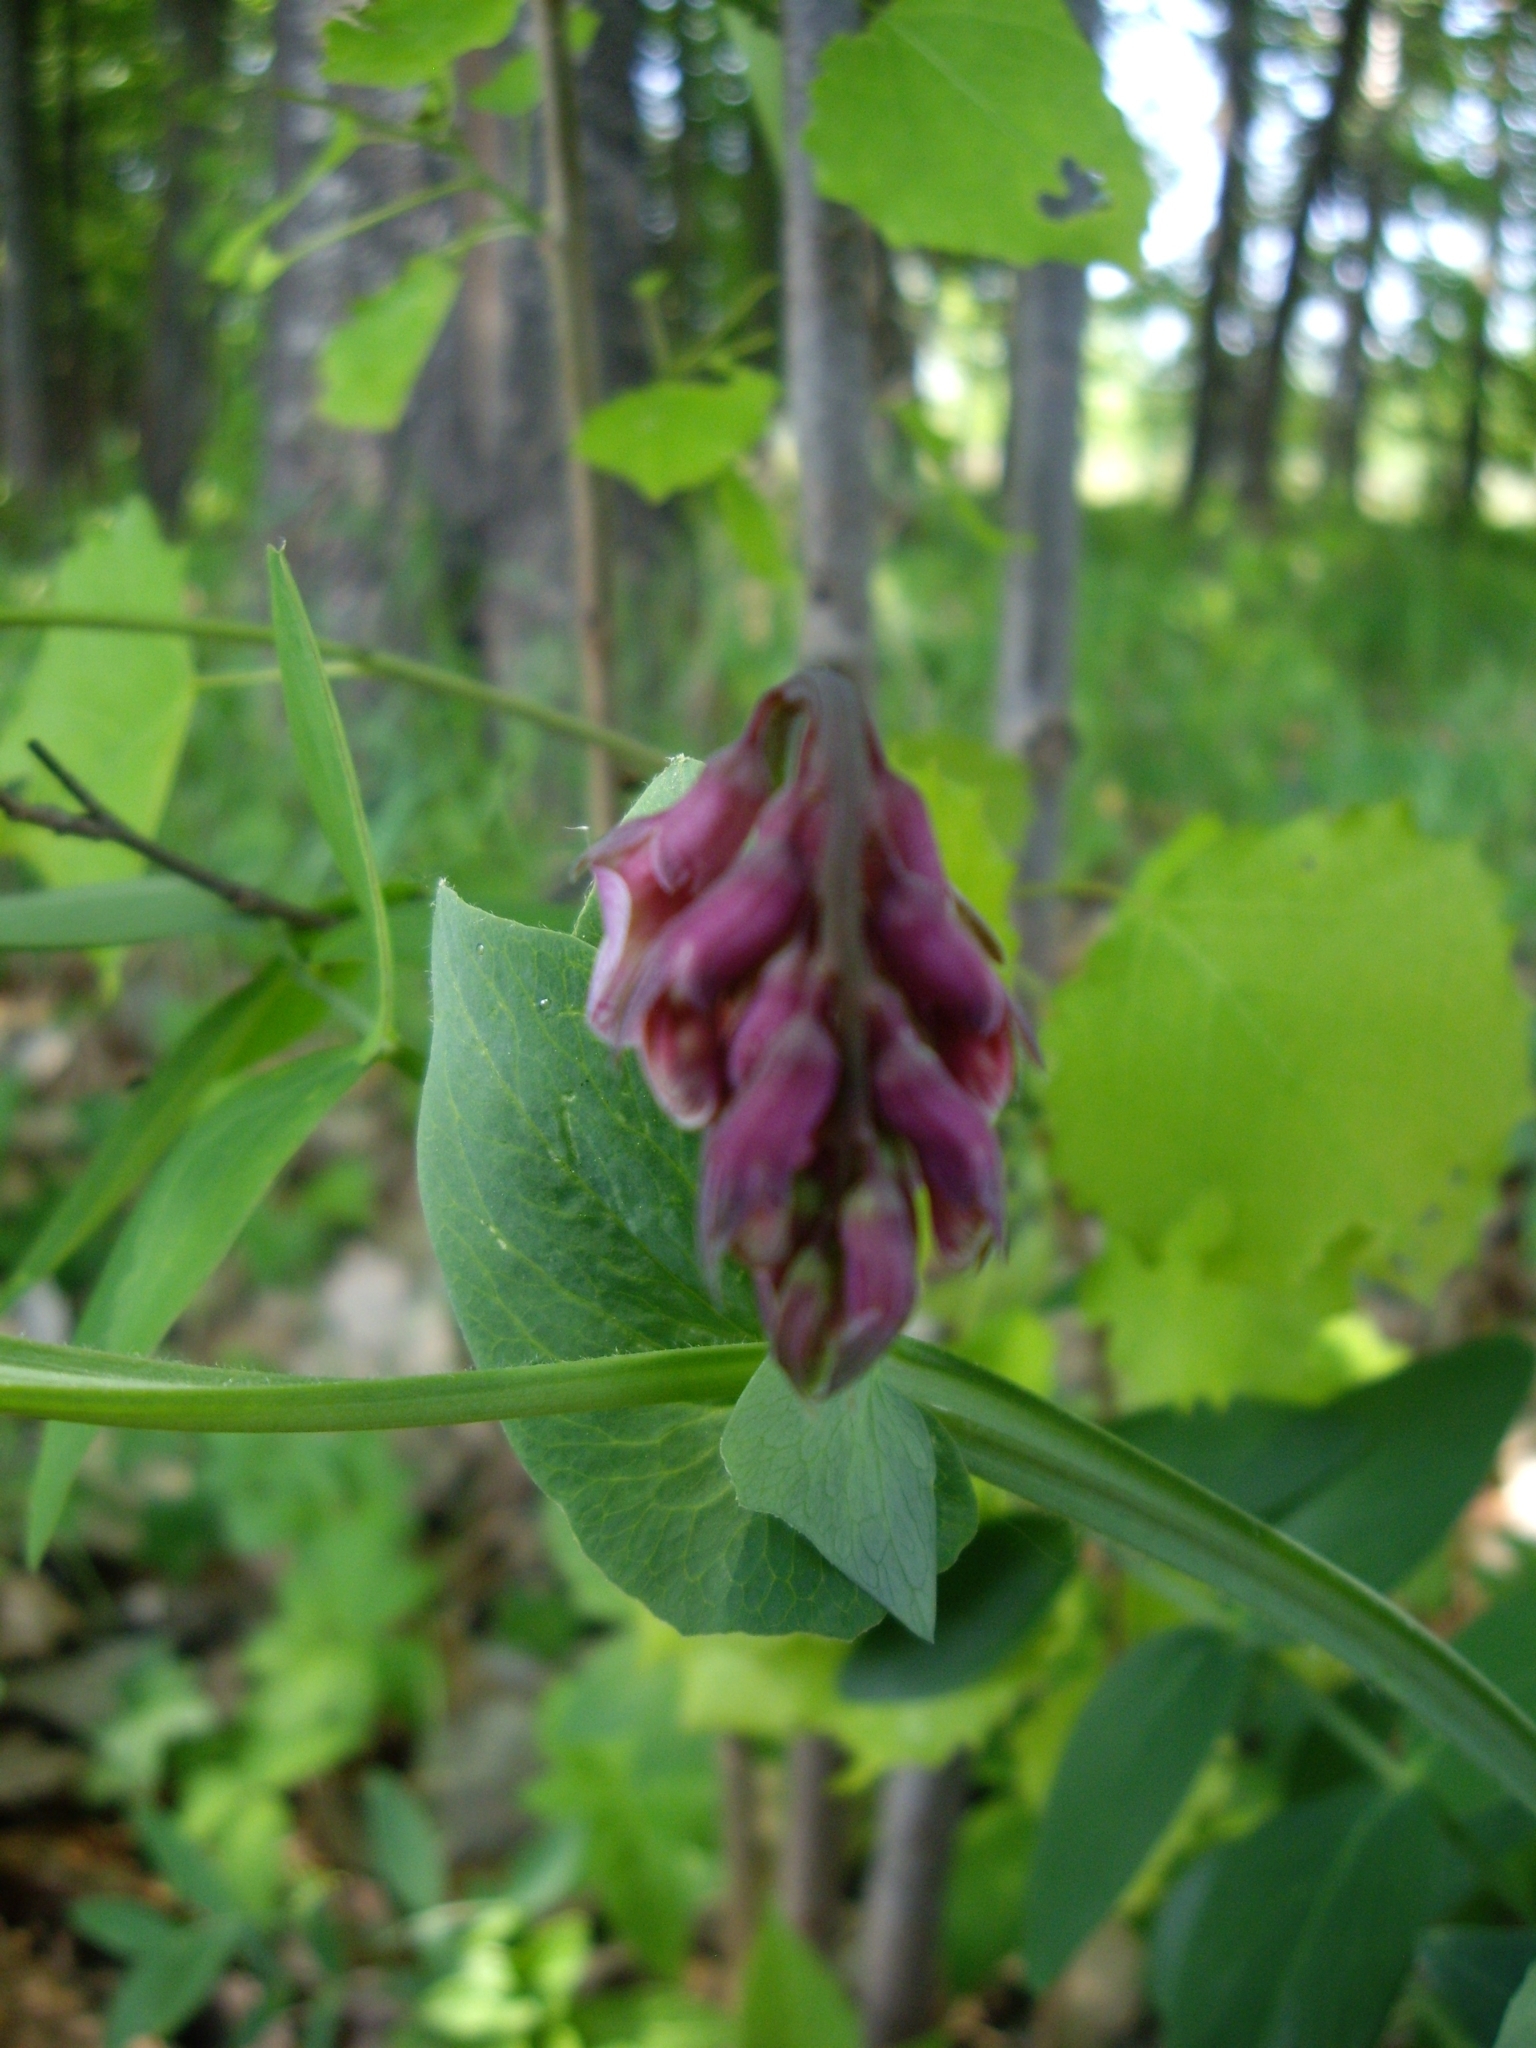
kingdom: Plantae
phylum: Tracheophyta
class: Magnoliopsida
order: Fabales
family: Fabaceae
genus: Lathyrus
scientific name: Lathyrus pisiformis
